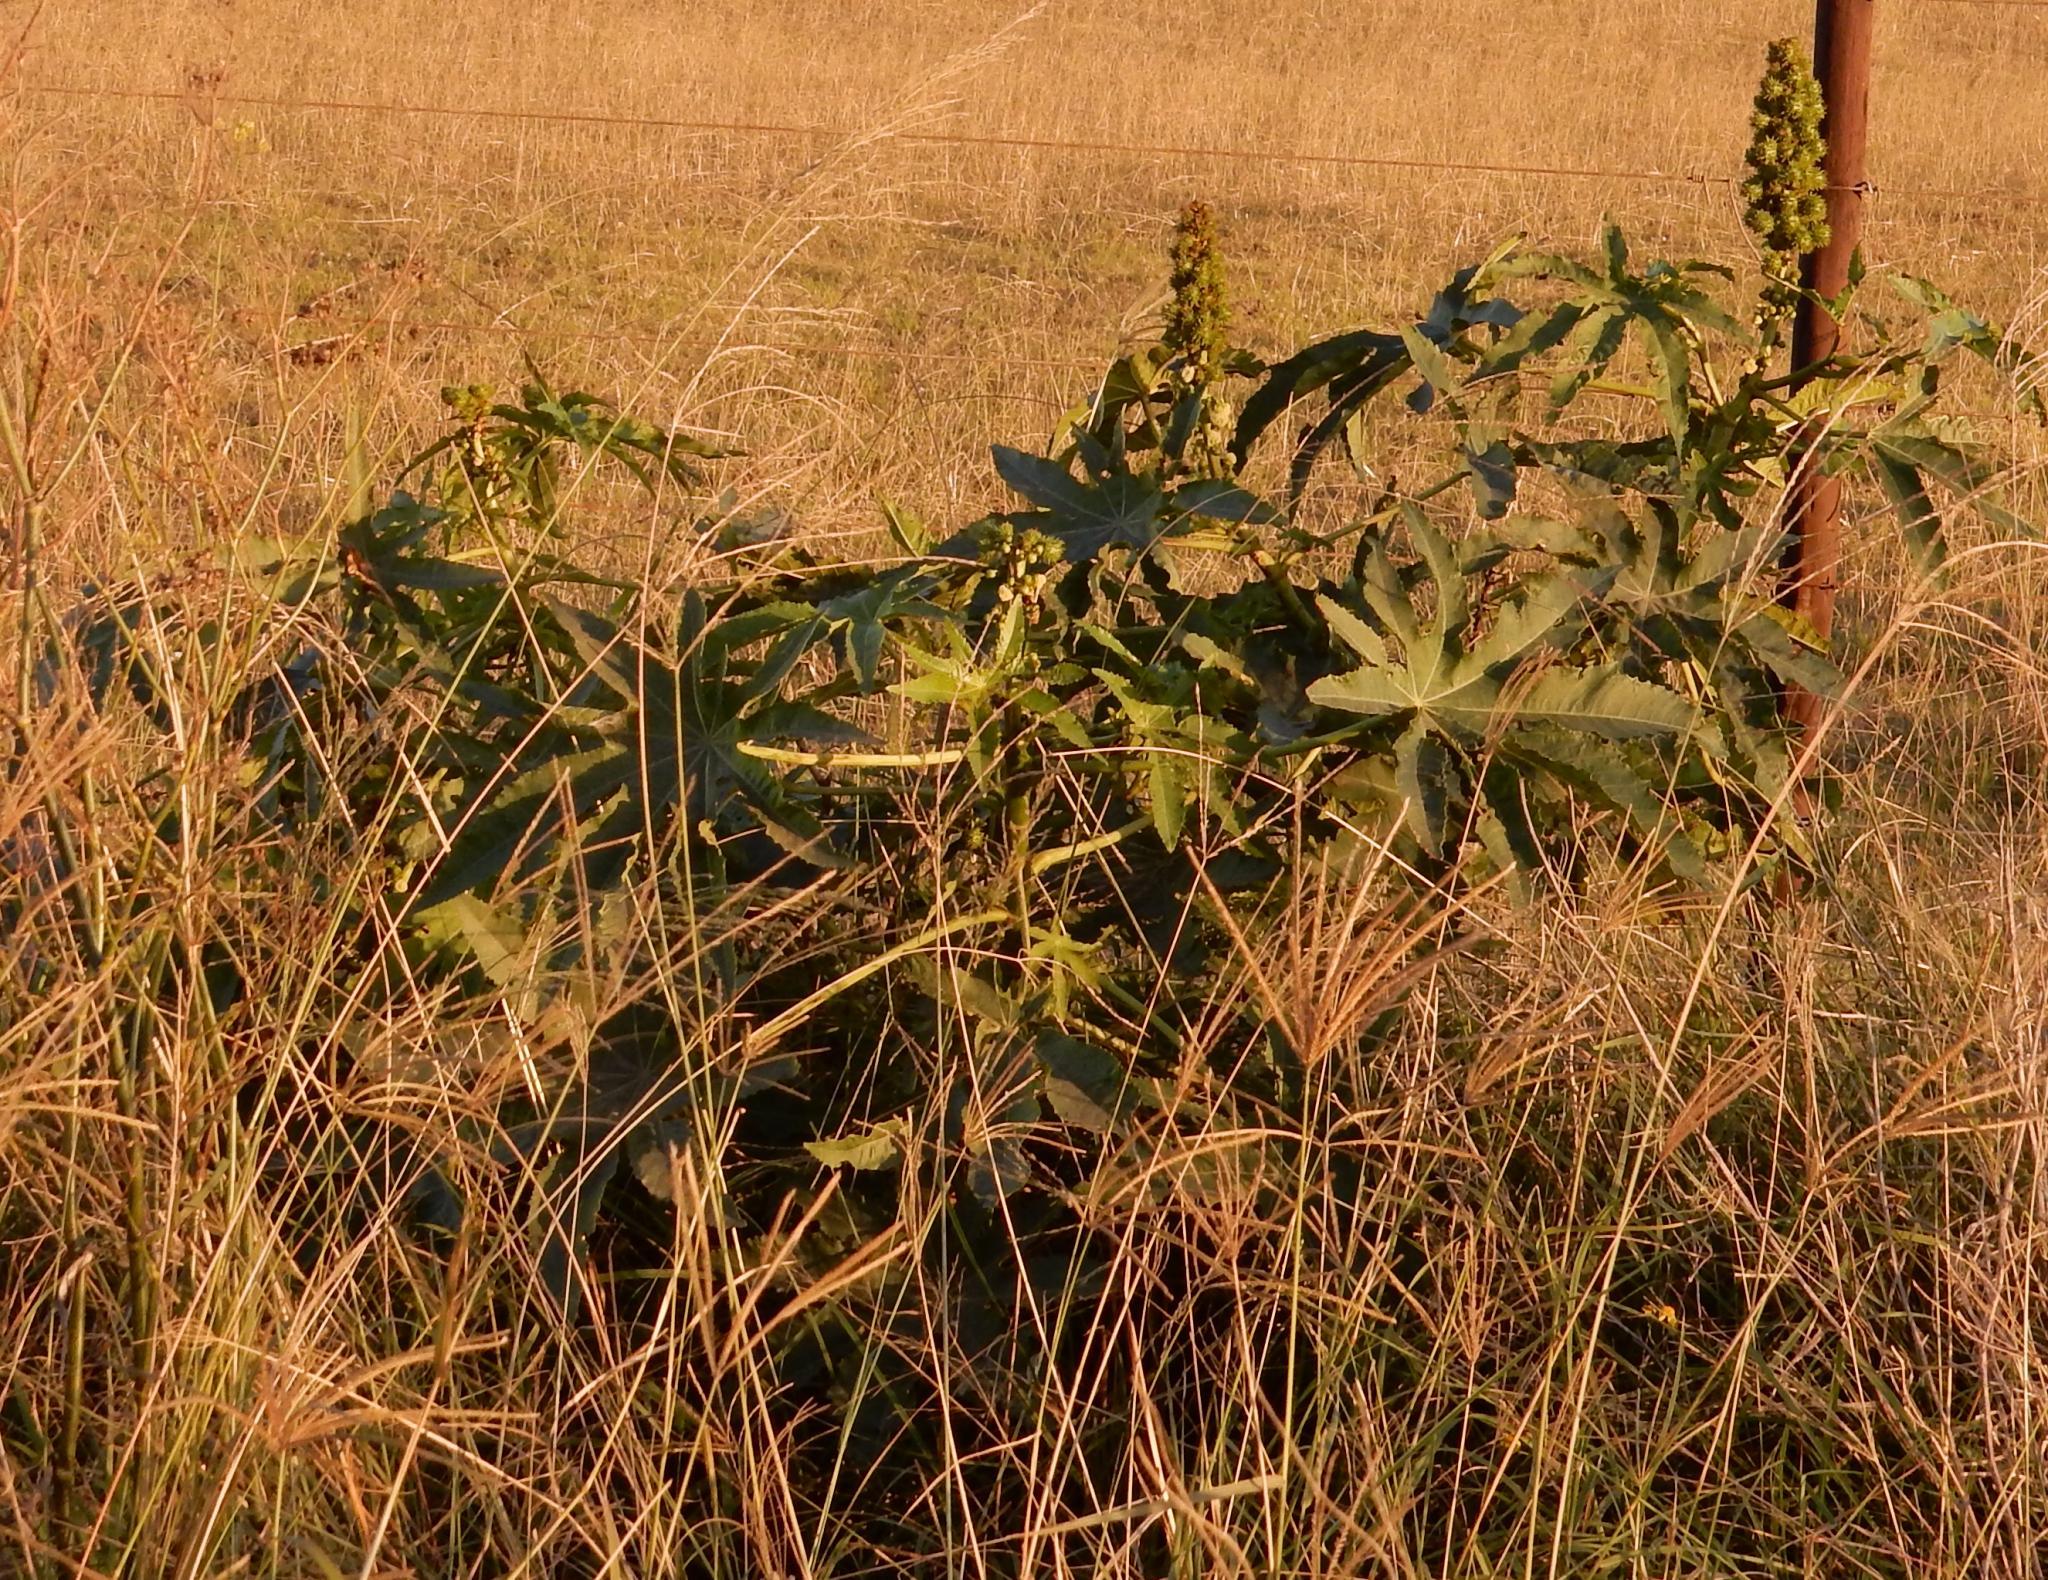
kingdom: Plantae
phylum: Tracheophyta
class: Magnoliopsida
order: Malpighiales
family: Euphorbiaceae
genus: Ricinus
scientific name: Ricinus communis
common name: Castor-oil-plant
